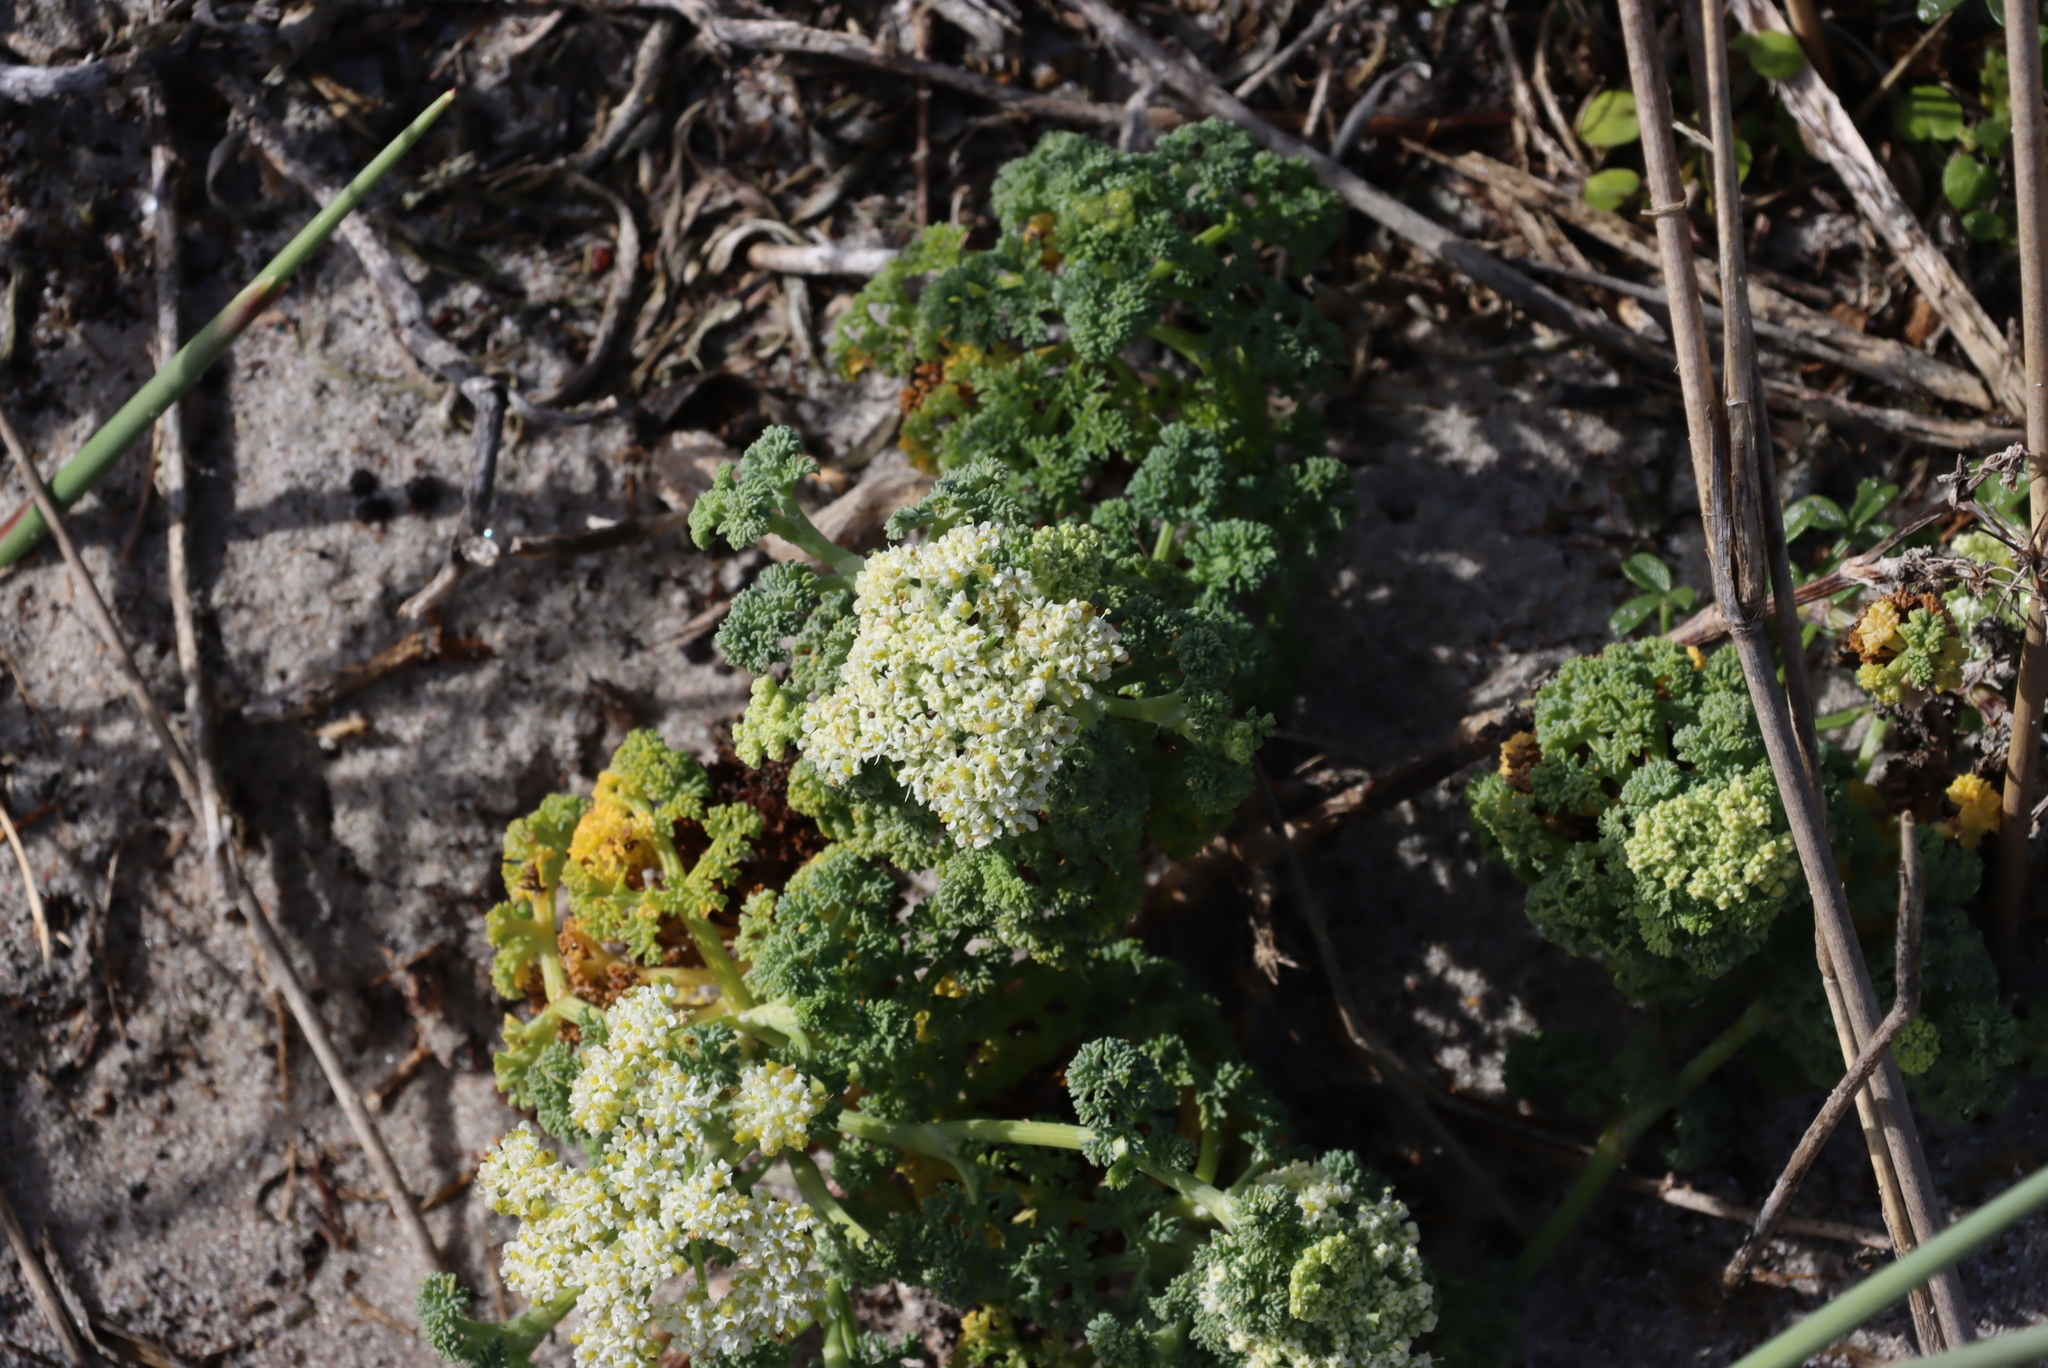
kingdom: Plantae
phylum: Tracheophyta
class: Magnoliopsida
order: Apiales
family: Apiaceae
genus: Dasispermum
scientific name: Dasispermum suffruticosum
